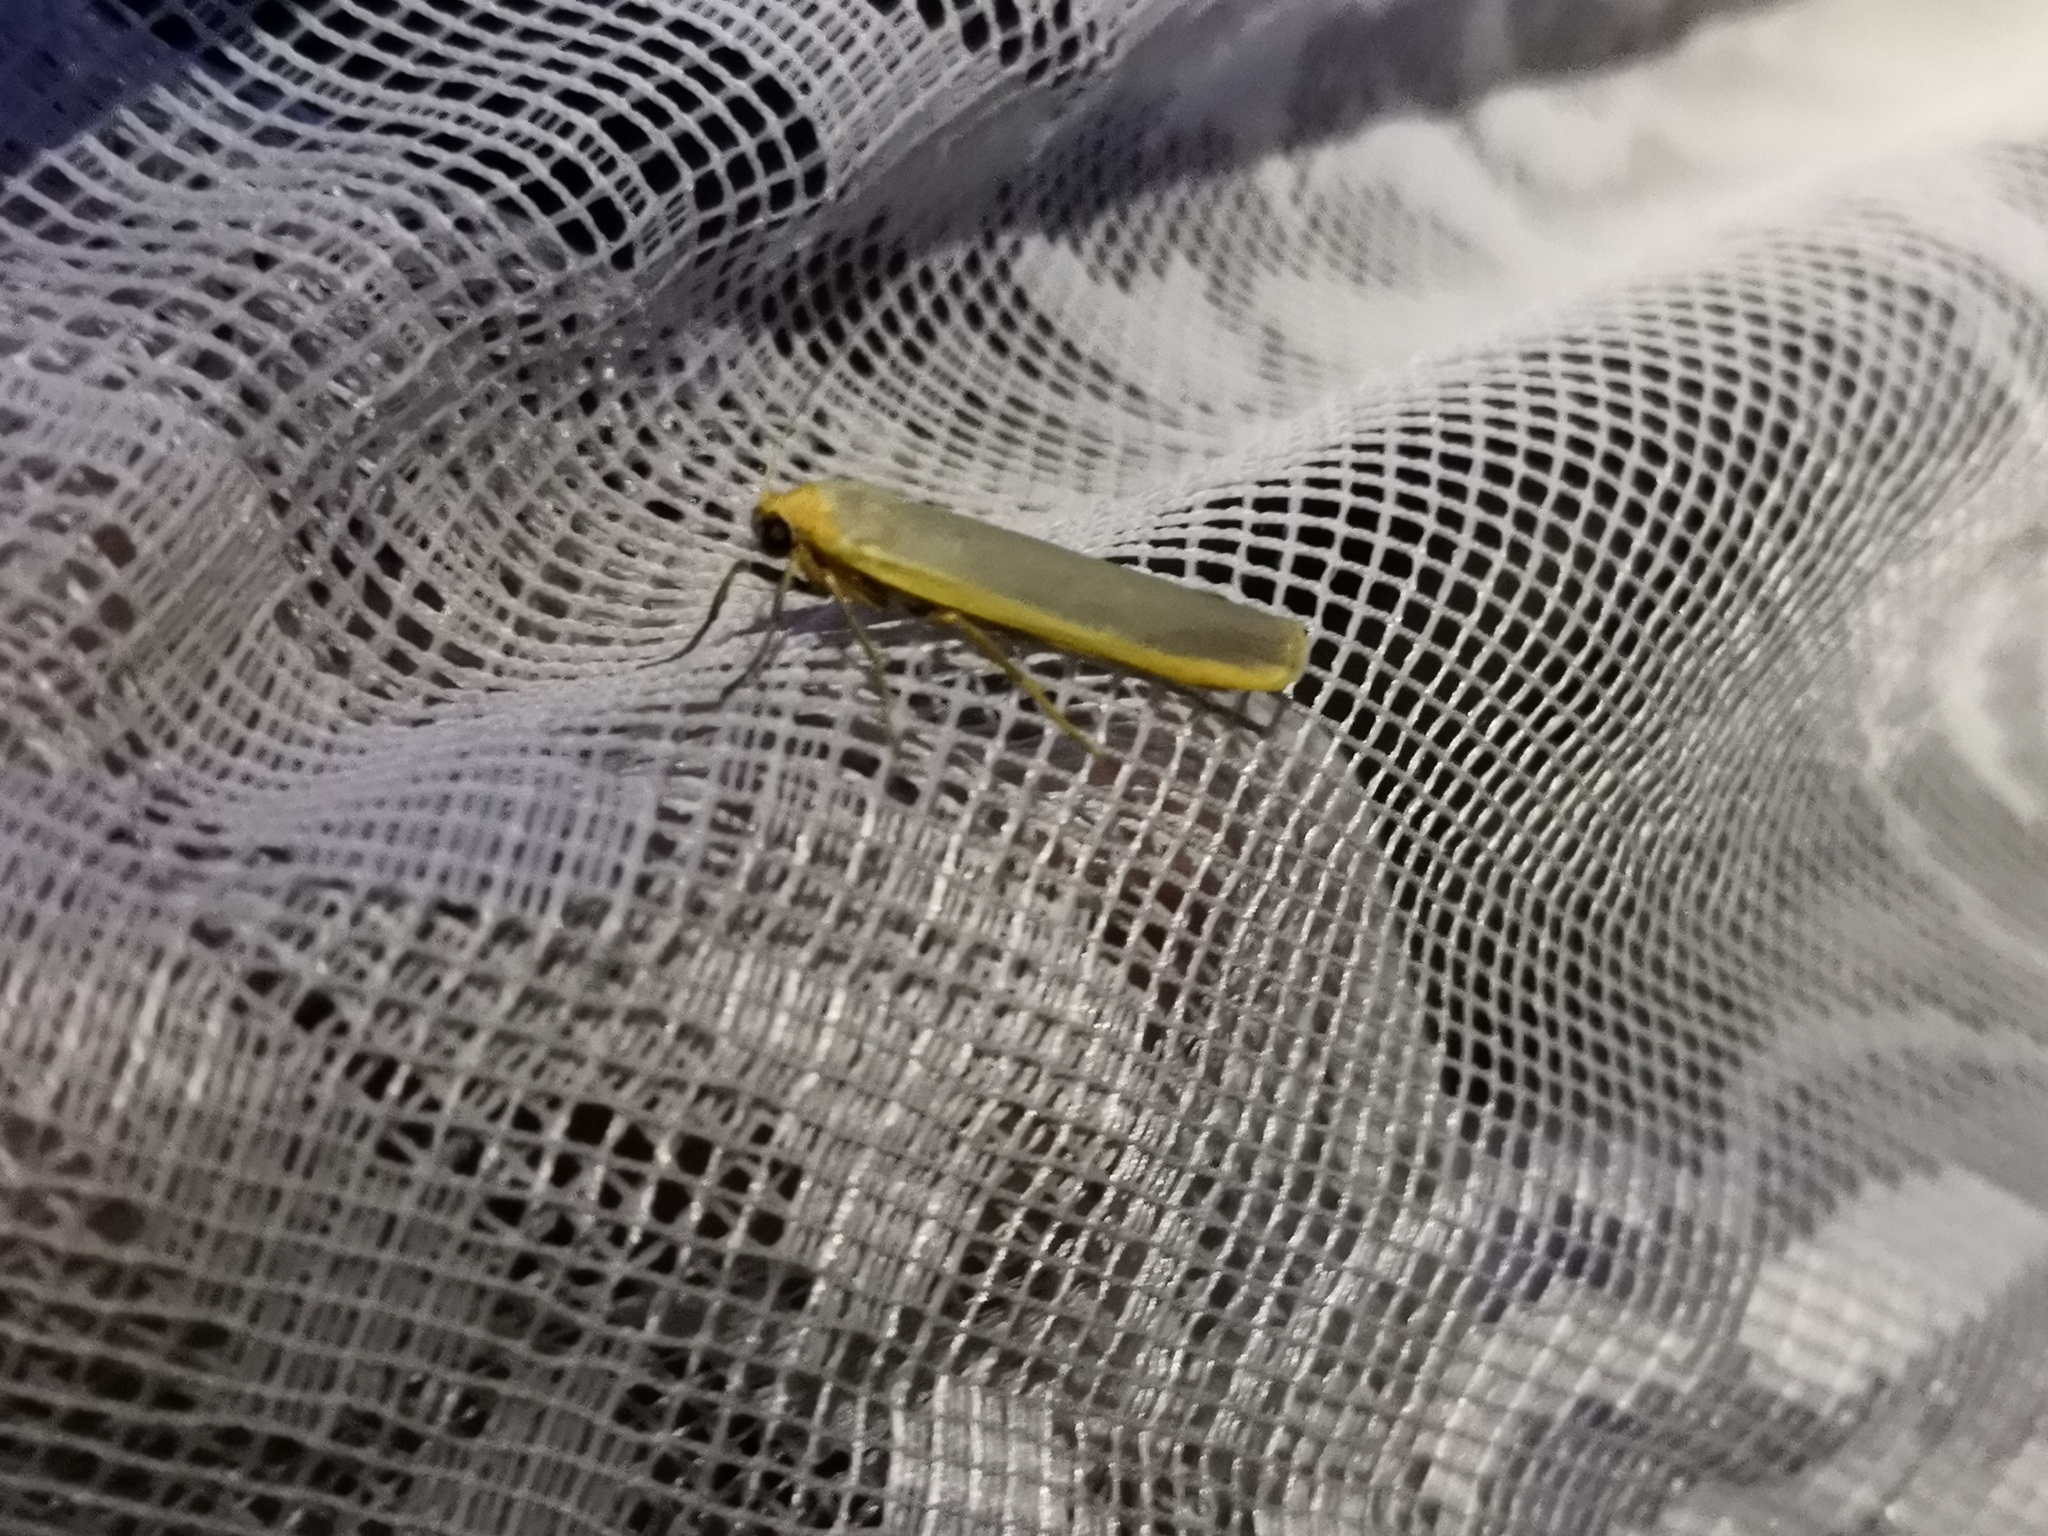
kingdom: Animalia
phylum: Arthropoda
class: Insecta
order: Lepidoptera
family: Erebidae
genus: Manulea
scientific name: Manulea complana
